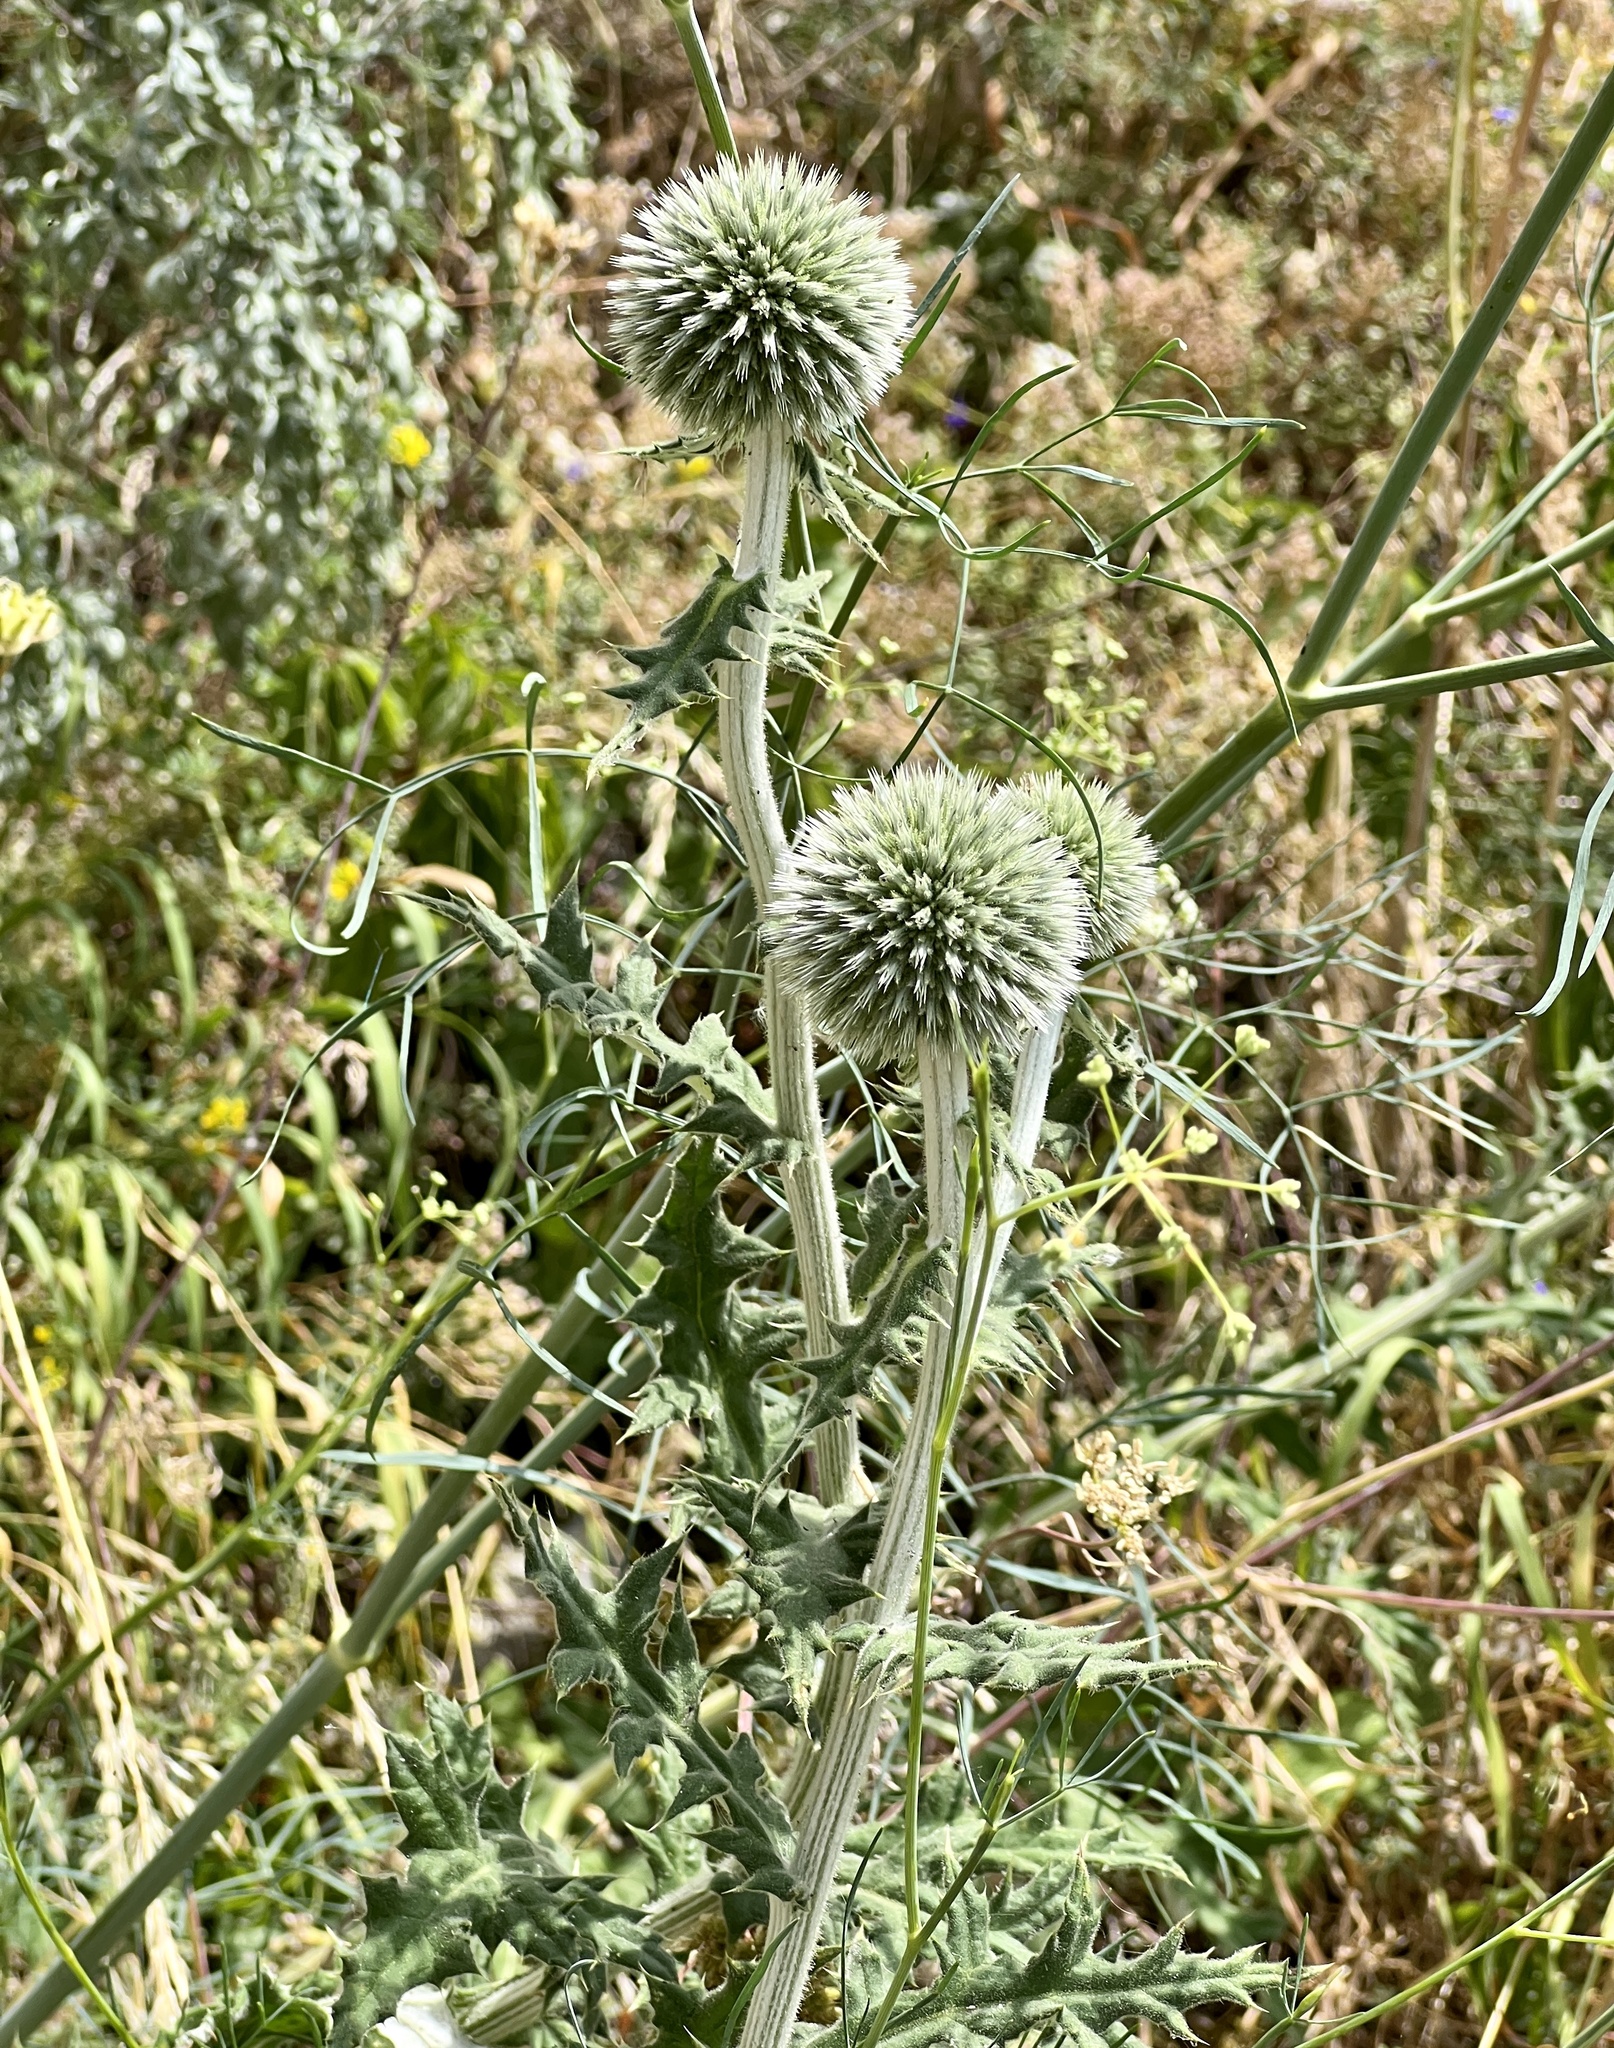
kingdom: Plantae
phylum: Tracheophyta
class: Magnoliopsida
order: Asterales
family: Asteraceae
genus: Echinops
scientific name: Echinops sphaerocephalus
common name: Glandular globe-thistle
